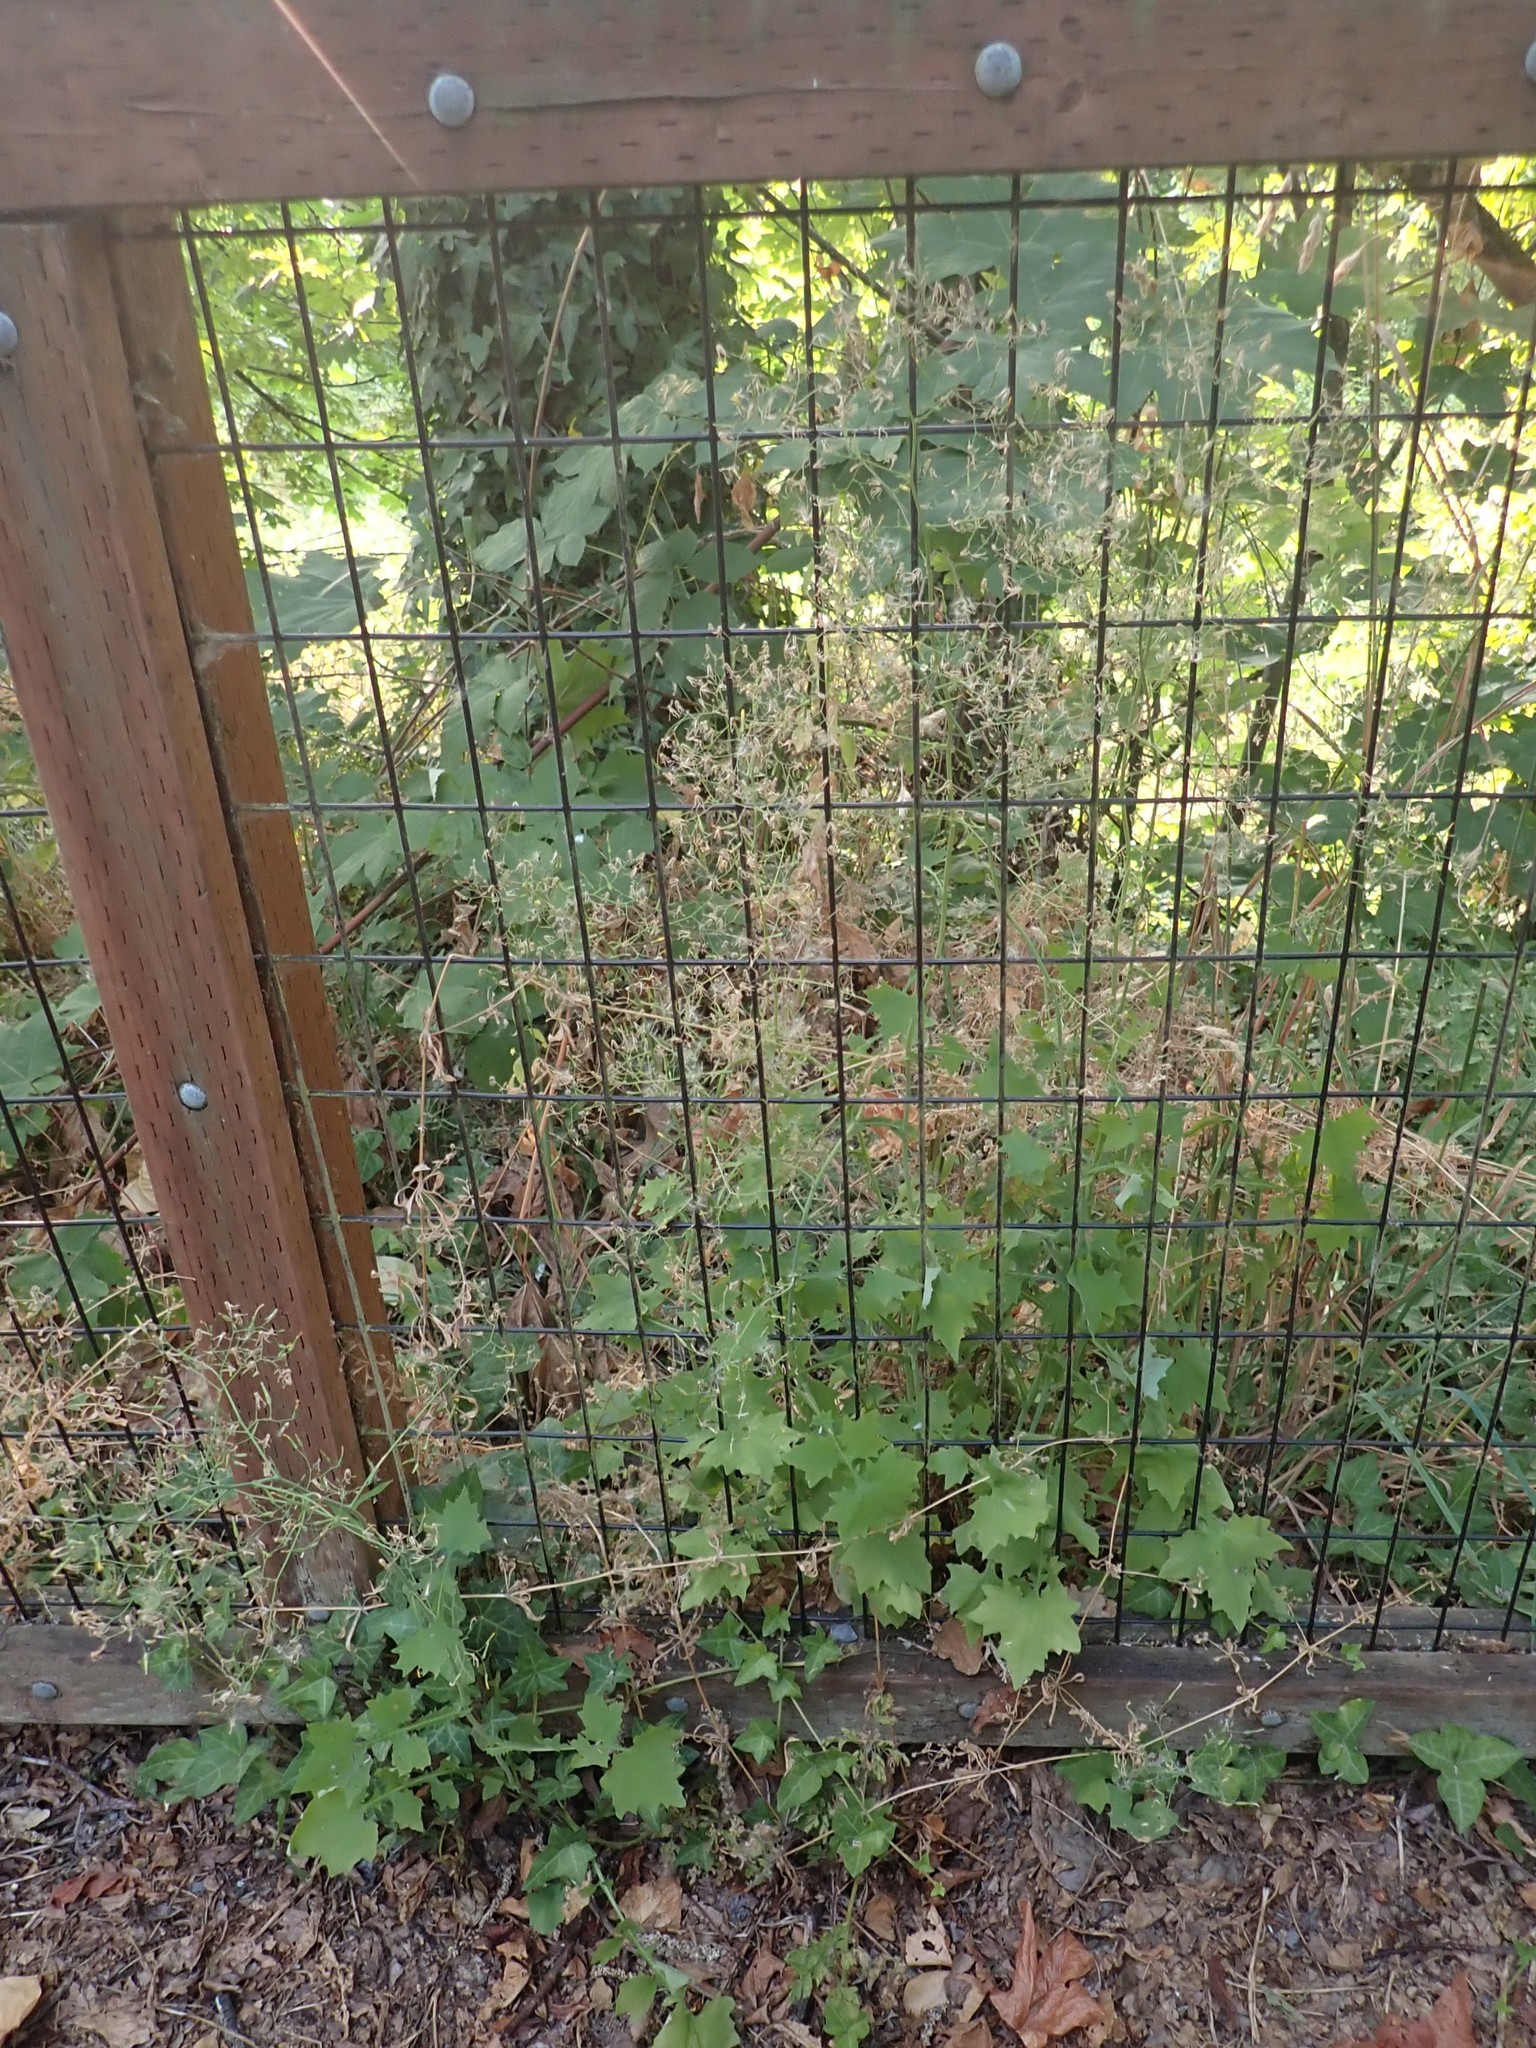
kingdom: Plantae
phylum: Tracheophyta
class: Magnoliopsida
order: Asterales
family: Asteraceae
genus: Mycelis
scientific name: Mycelis muralis
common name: Wall lettuce
